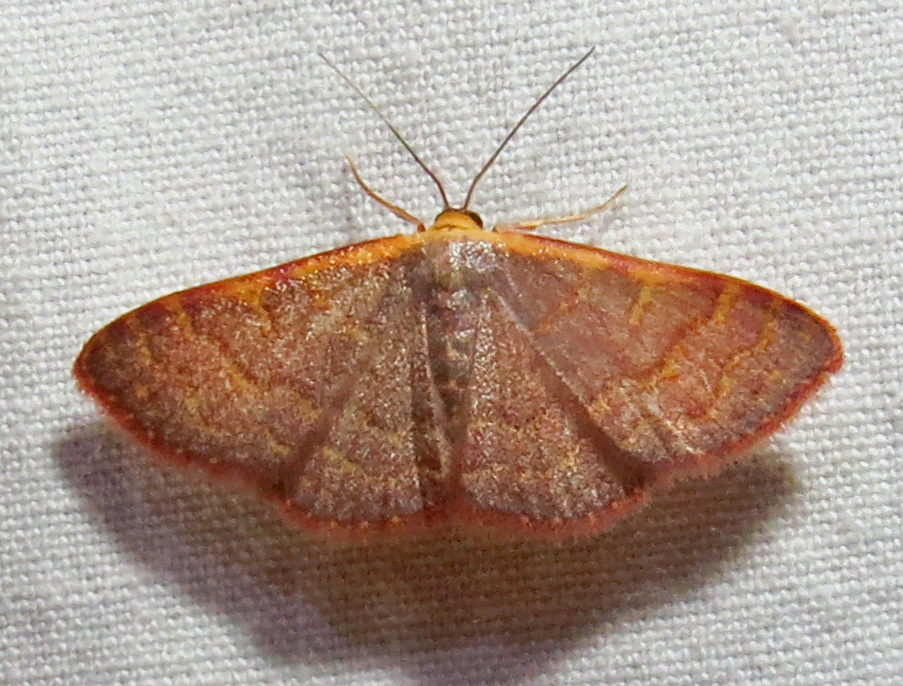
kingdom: Animalia
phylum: Arthropoda
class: Insecta
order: Lepidoptera
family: Geometridae
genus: Leptostales
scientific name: Leptostales pannaria
